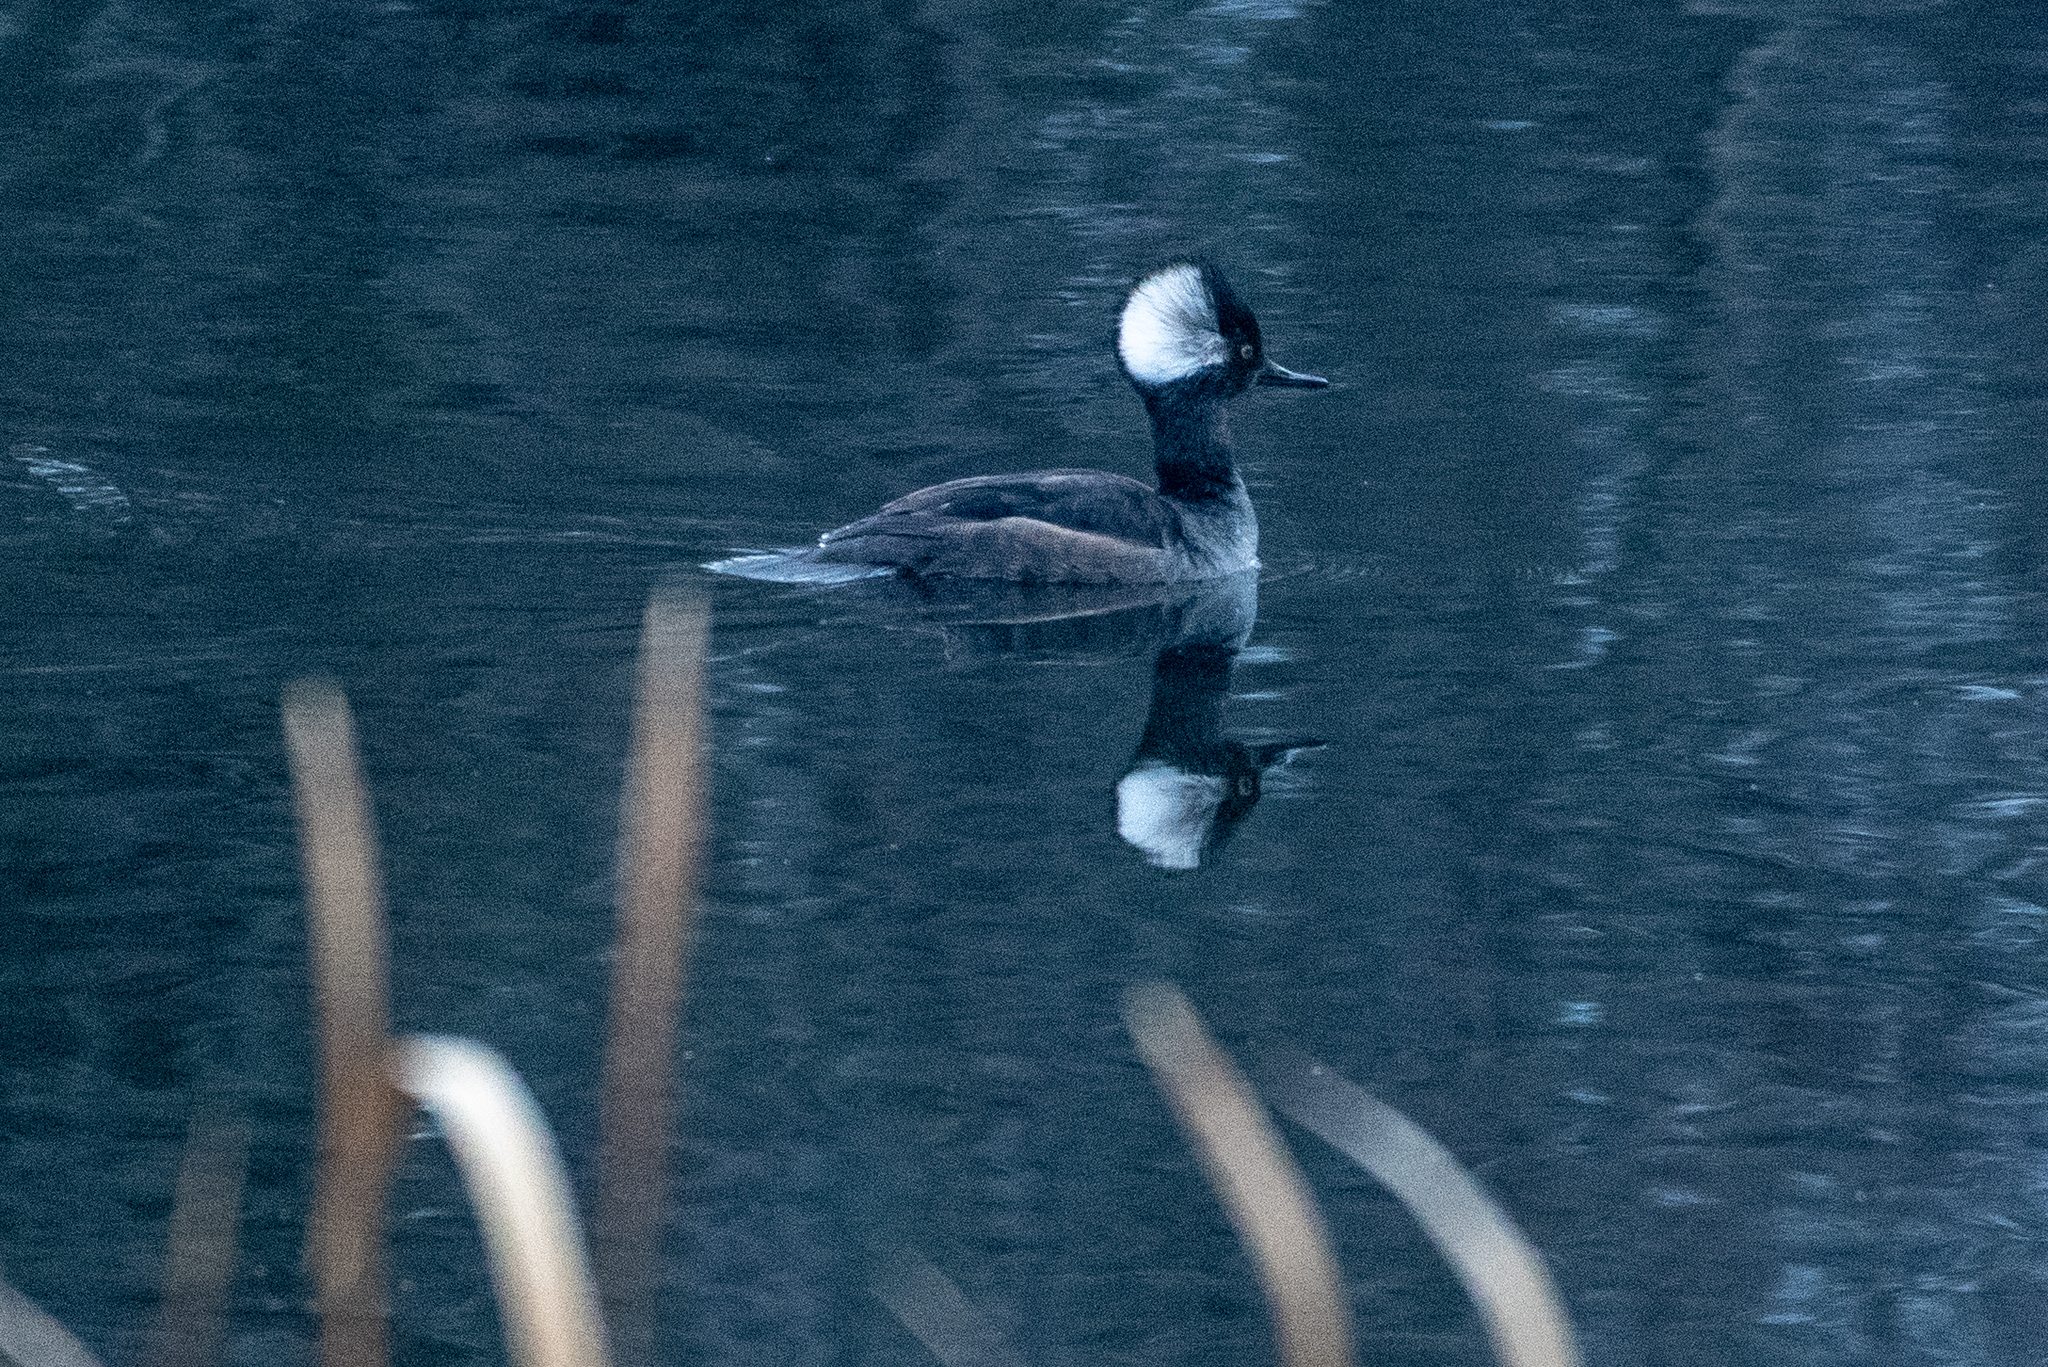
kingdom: Animalia
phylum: Chordata
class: Aves
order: Anseriformes
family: Anatidae
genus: Lophodytes
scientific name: Lophodytes cucullatus
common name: Hooded merganser
